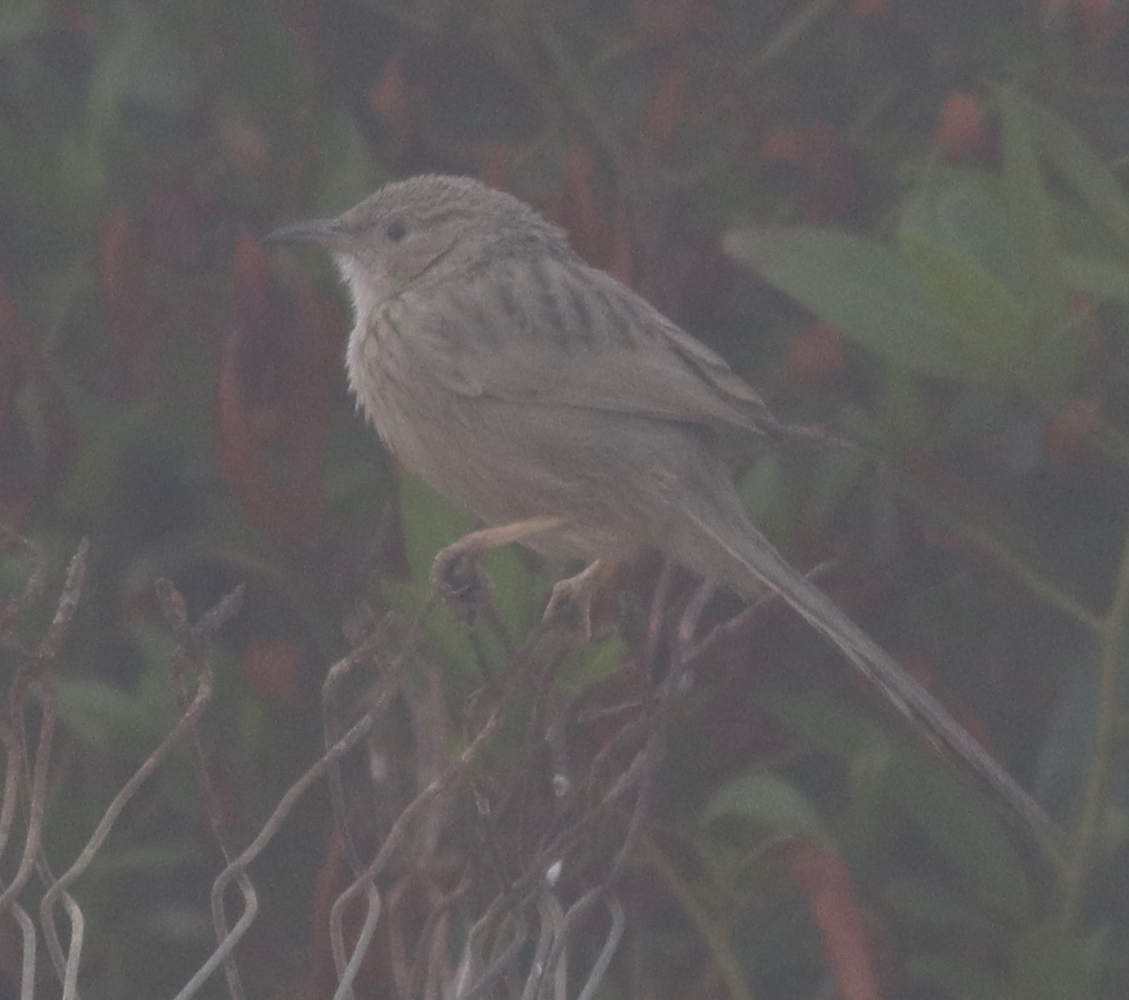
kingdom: Animalia
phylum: Chordata
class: Aves
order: Passeriformes
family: Leiothrichidae
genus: Turdoides
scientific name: Turdoides huttoni
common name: Afghan babbler
